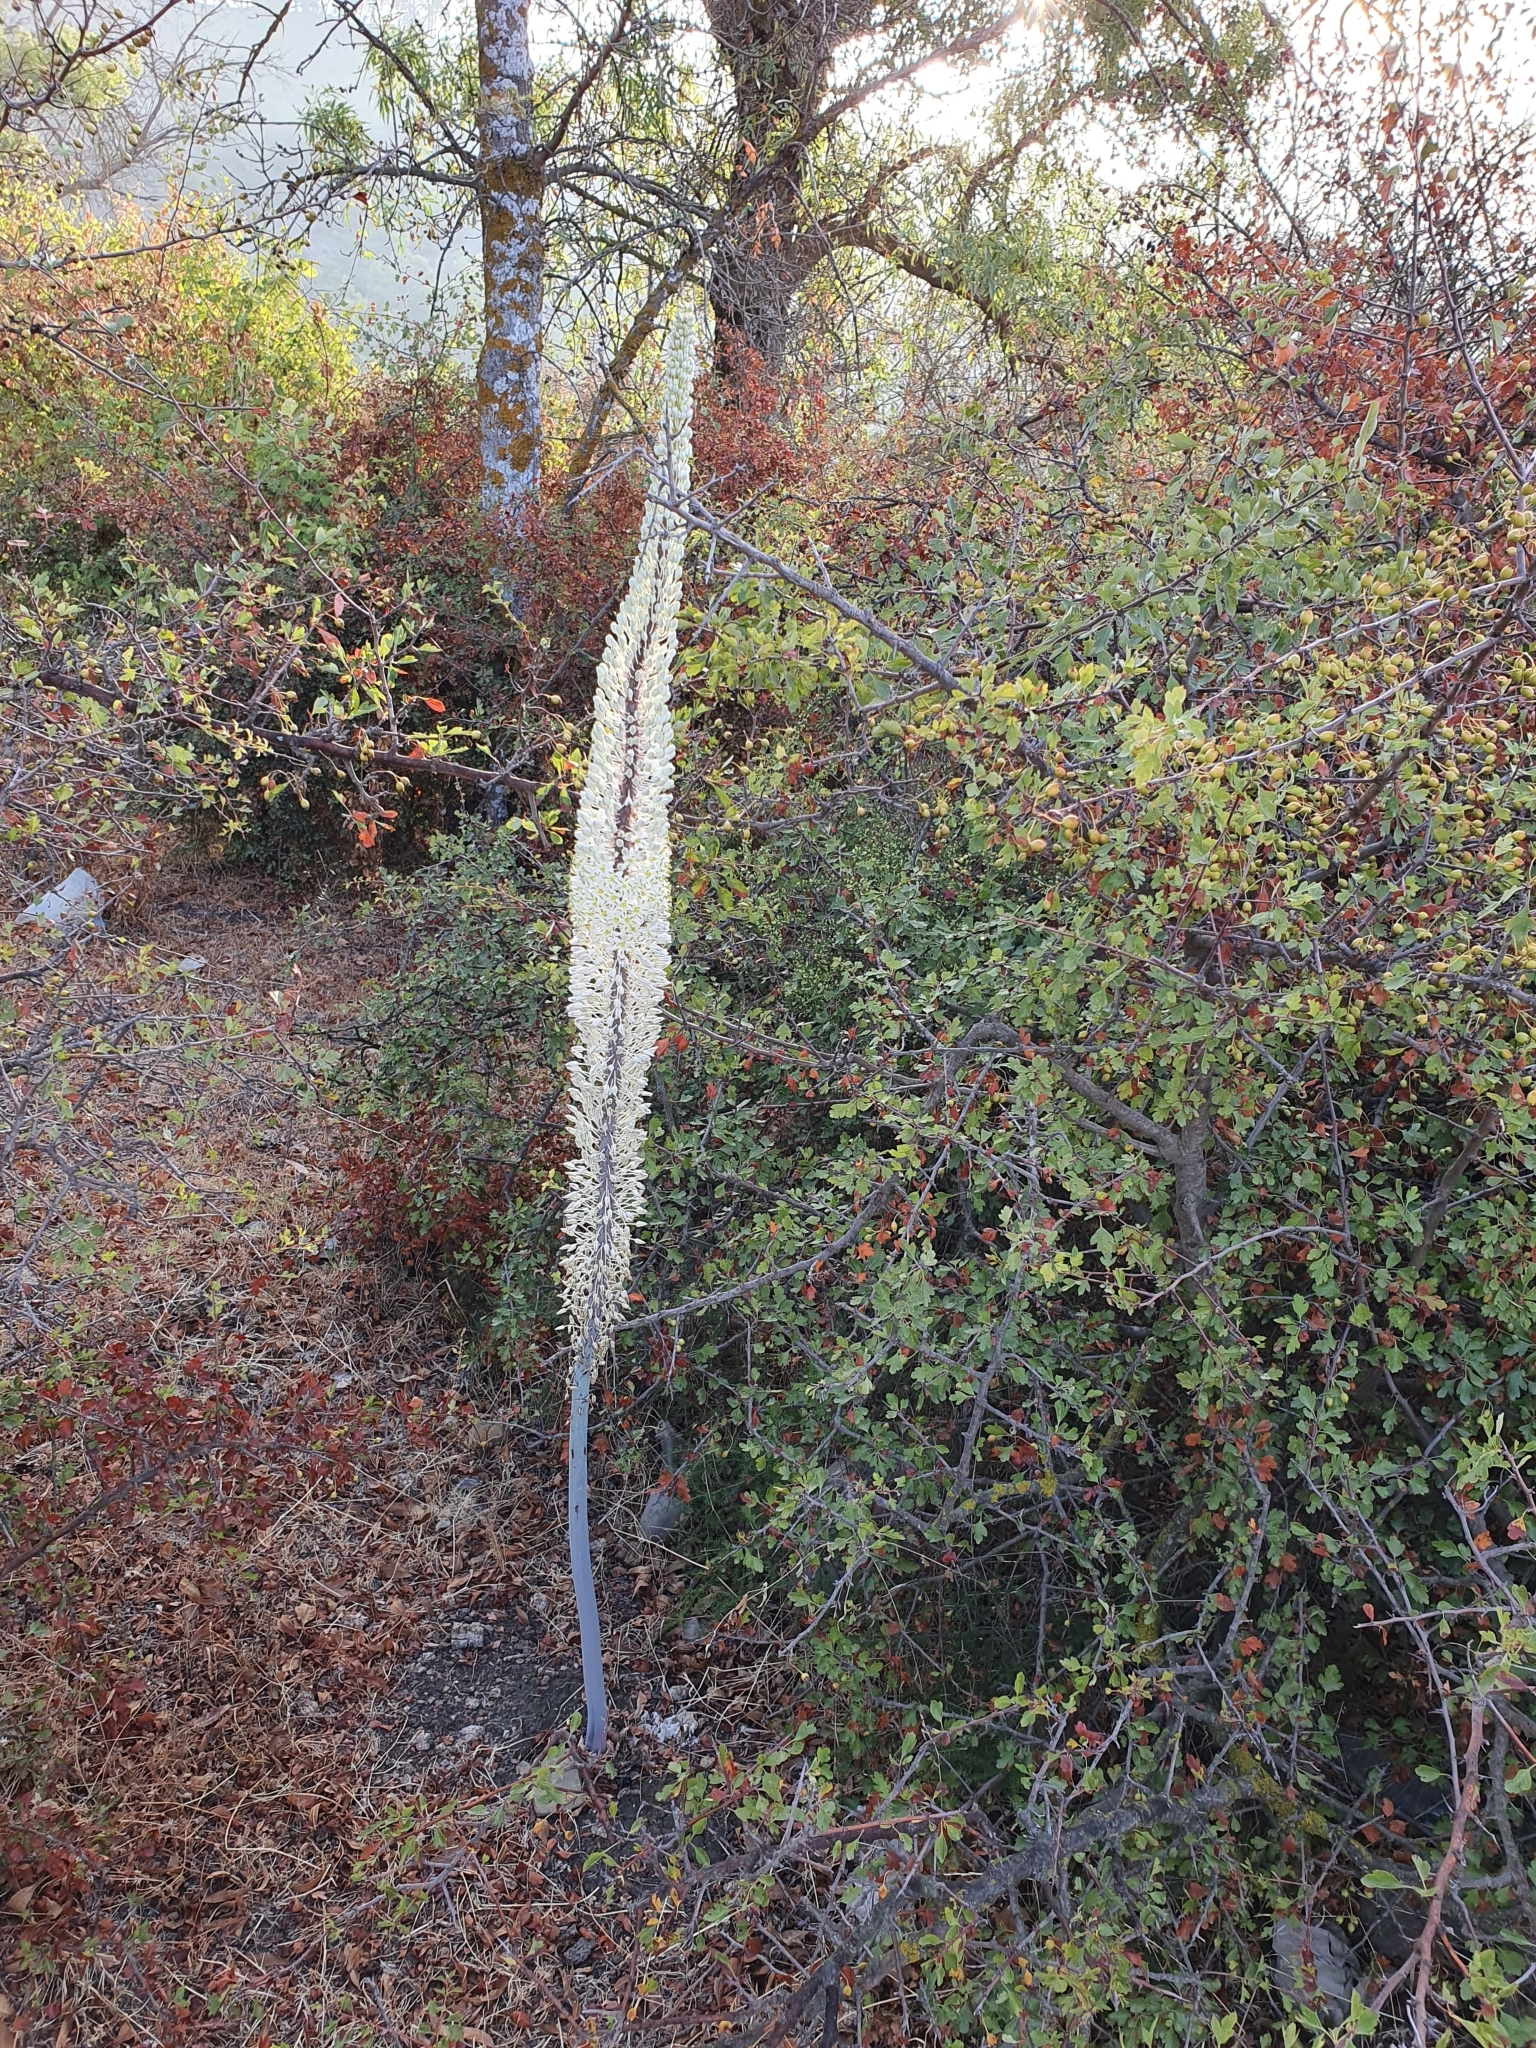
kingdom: Plantae
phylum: Tracheophyta
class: Liliopsida
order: Asparagales
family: Asparagaceae
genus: Drimia
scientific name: Drimia numidica
